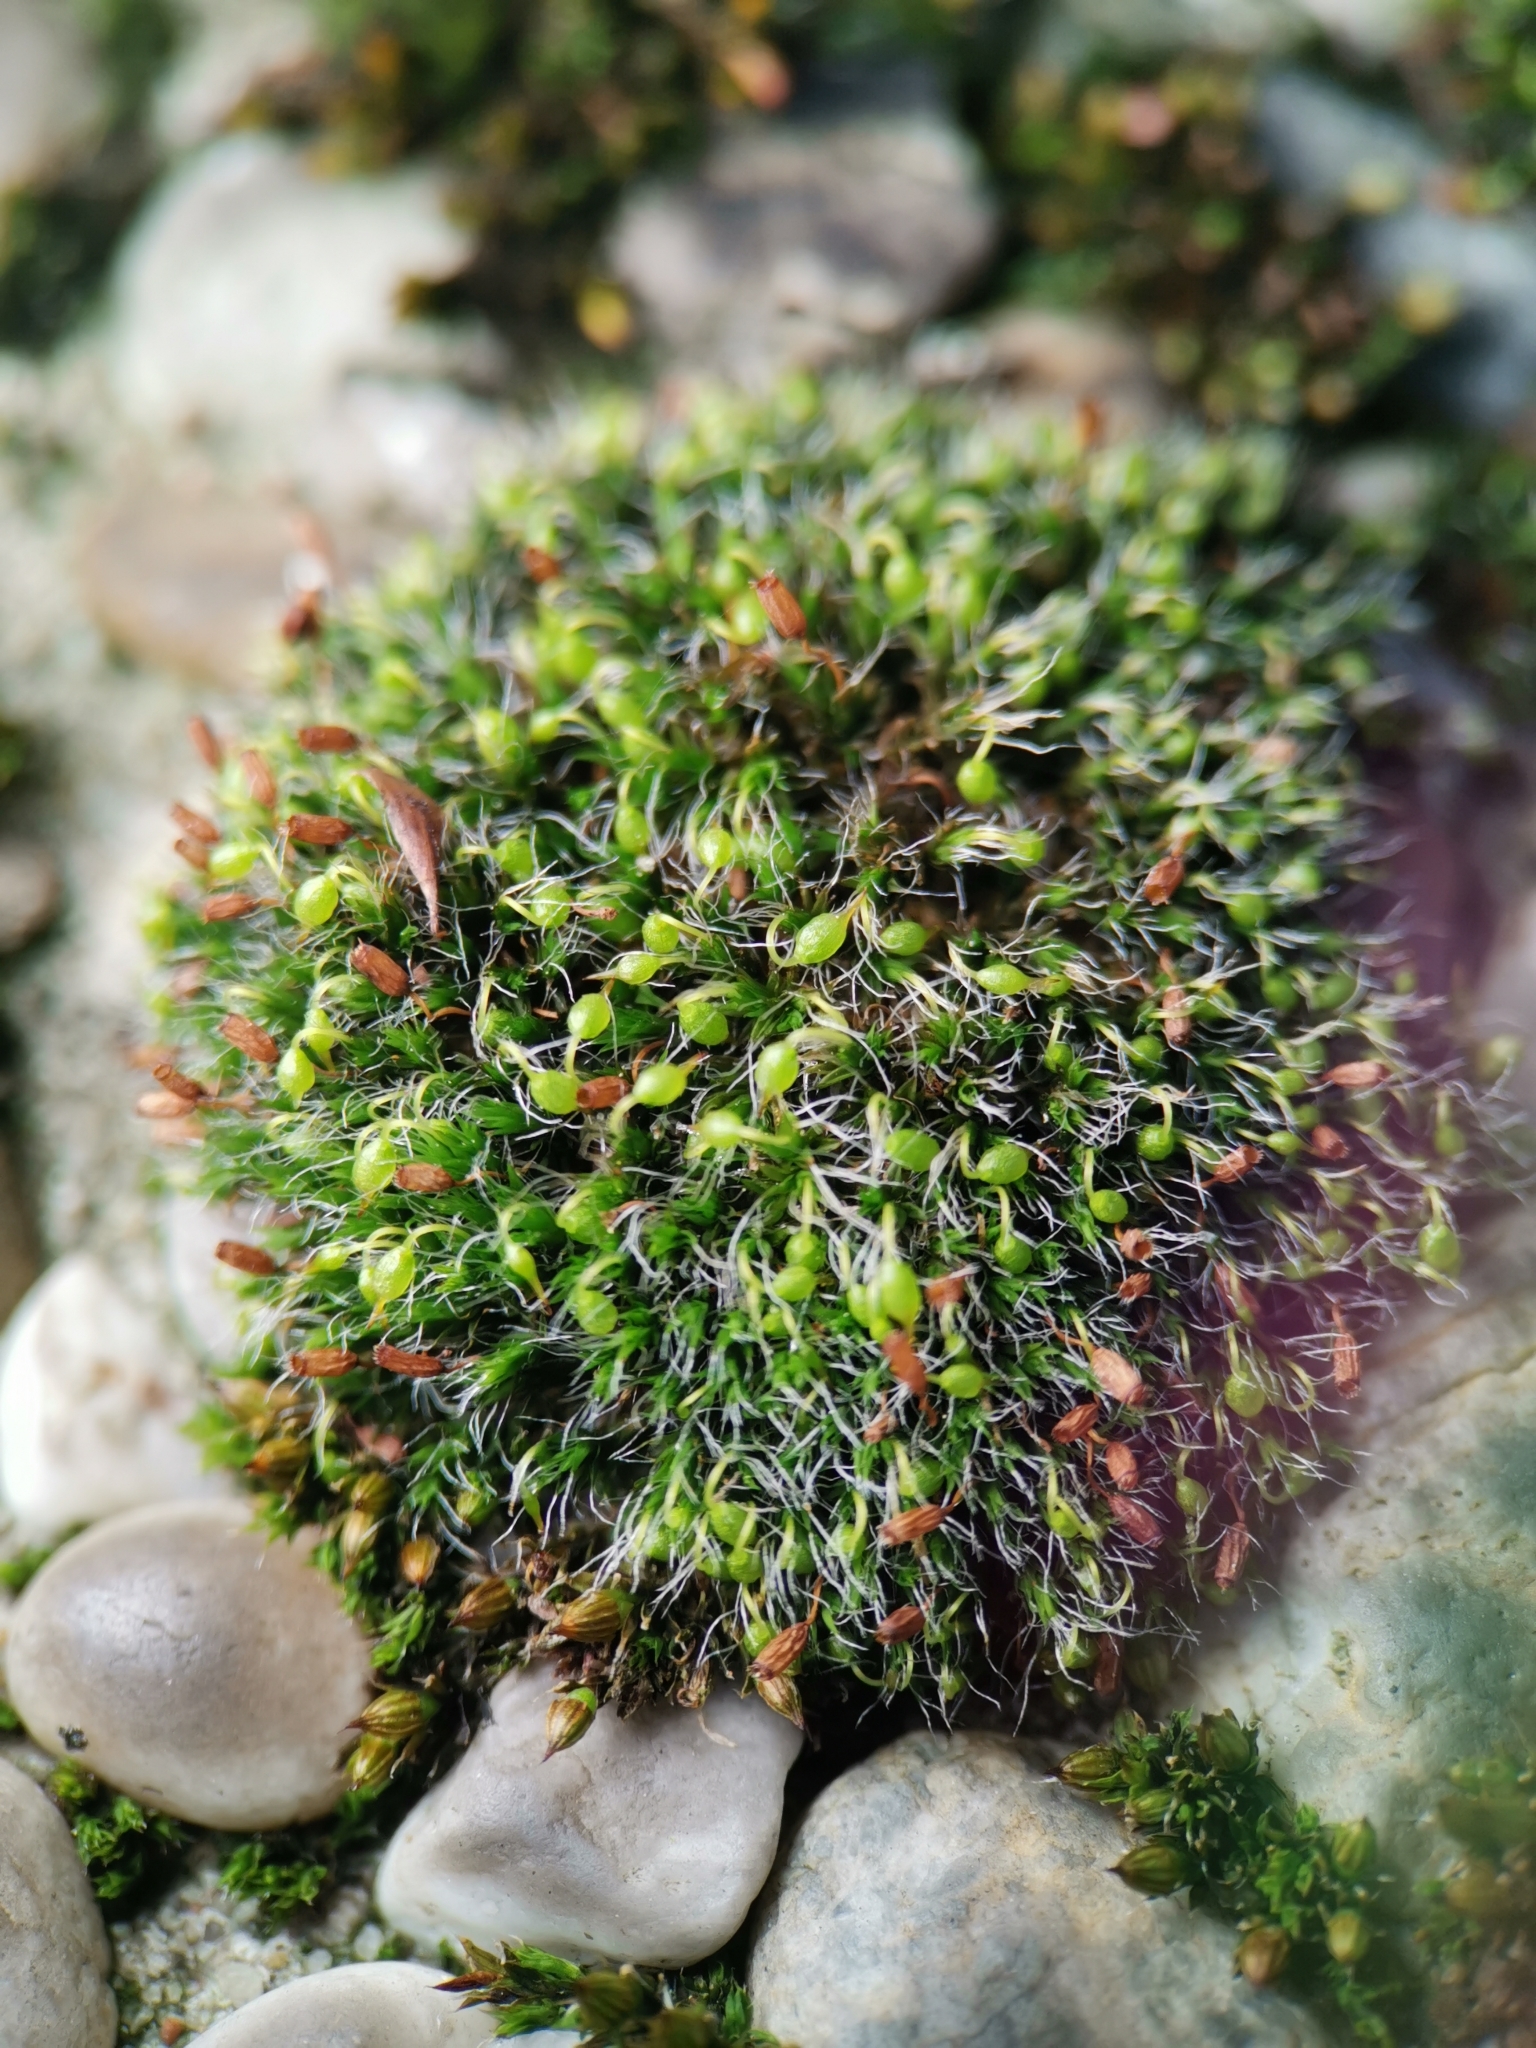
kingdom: Plantae
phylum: Bryophyta
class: Bryopsida
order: Grimmiales
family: Grimmiaceae
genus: Grimmia
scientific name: Grimmia pulvinata
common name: Grey-cushioned grimmia
